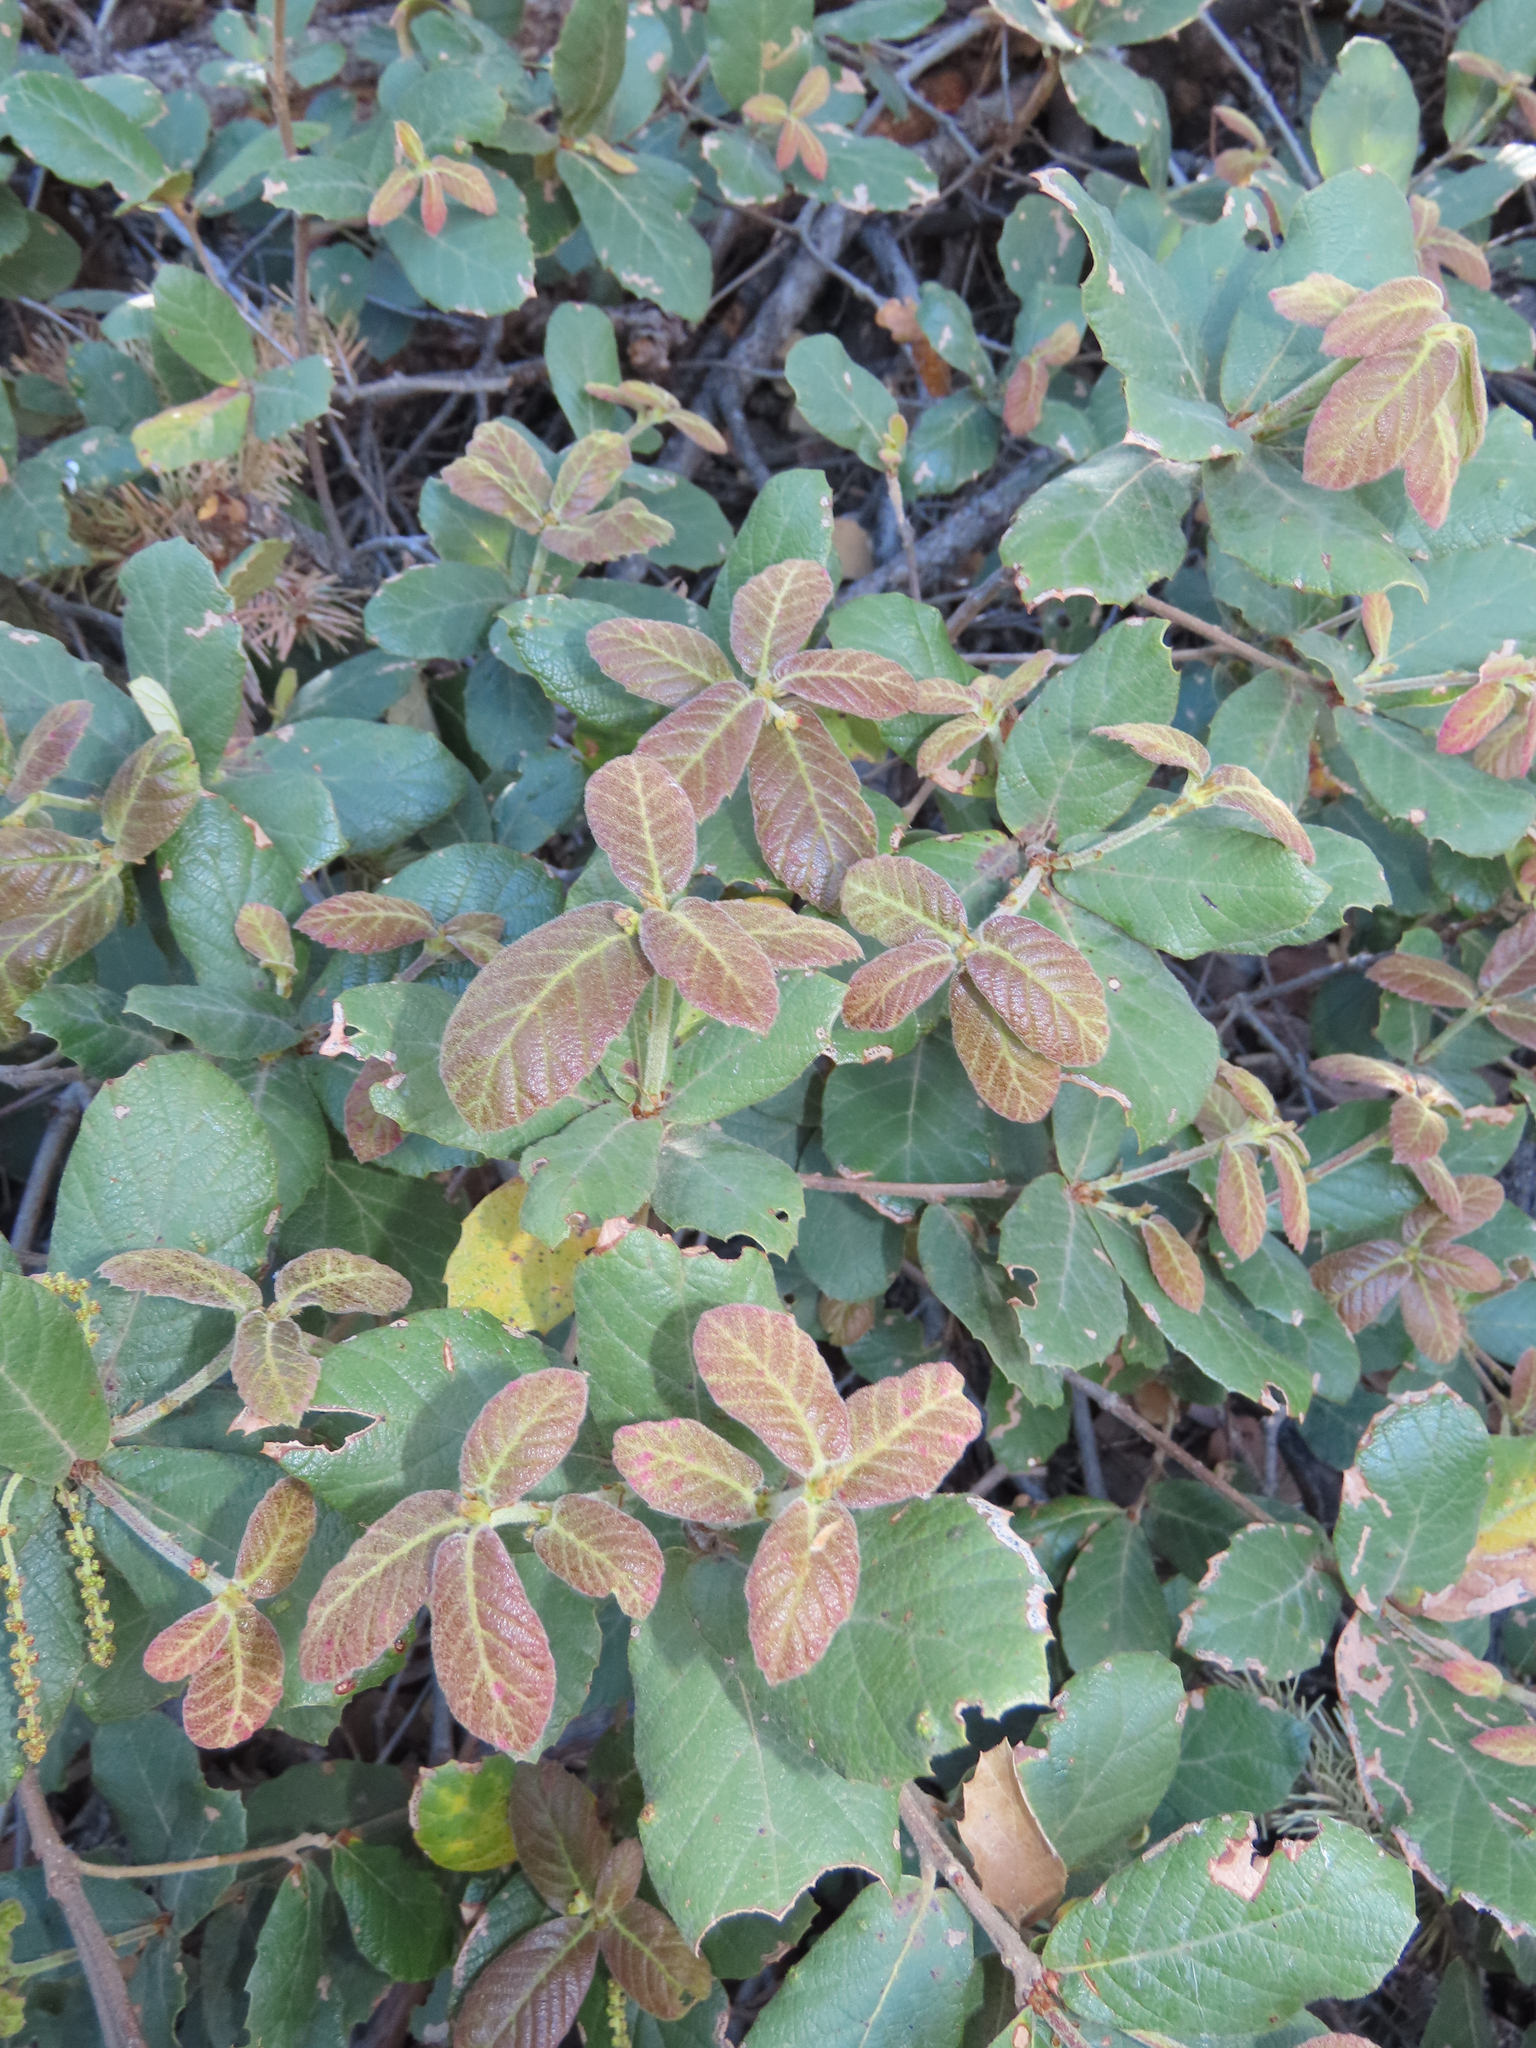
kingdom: Plantae
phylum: Tracheophyta
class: Magnoliopsida
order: Fagales
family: Fagaceae
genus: Quercus
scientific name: Quercus rugosa
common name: Netleaf oak
